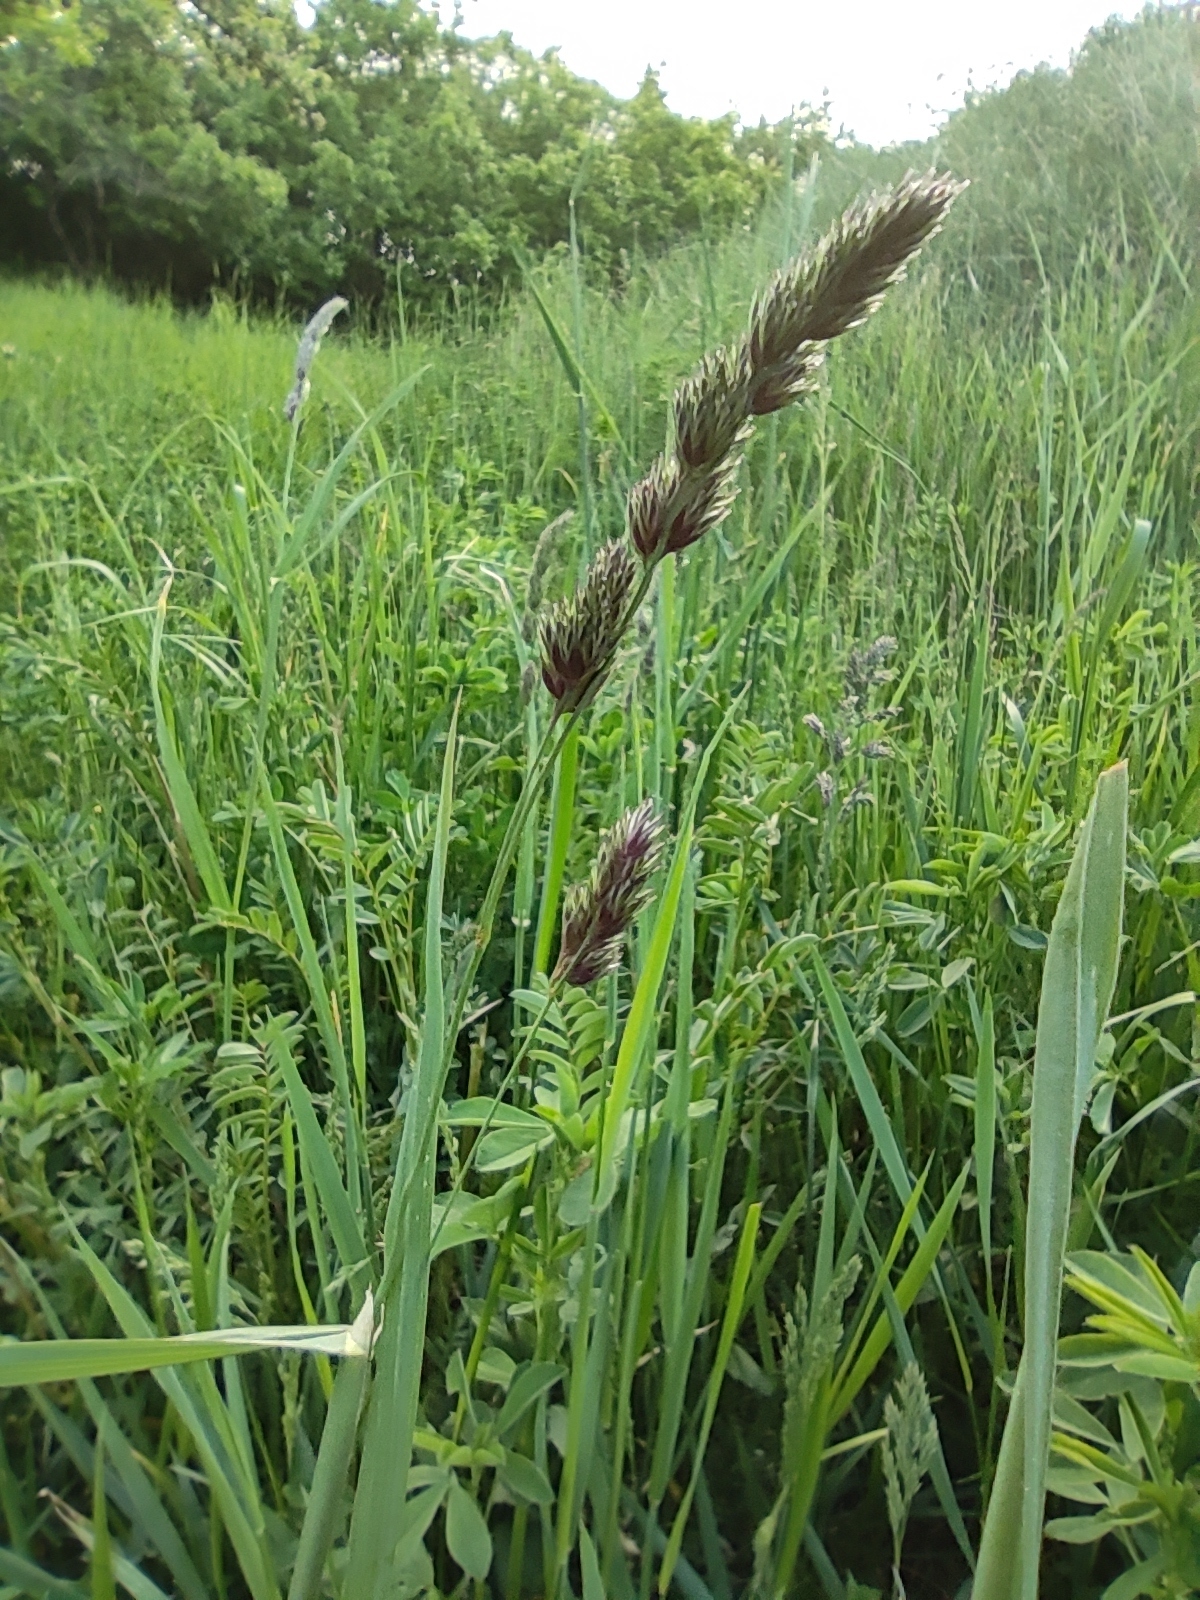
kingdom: Plantae
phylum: Tracheophyta
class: Liliopsida
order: Poales
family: Poaceae
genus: Dactylis
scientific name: Dactylis glomerata
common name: Orchardgrass
